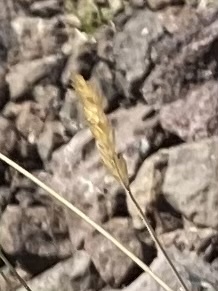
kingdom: Plantae
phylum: Tracheophyta
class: Liliopsida
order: Poales
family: Poaceae
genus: Koeleria
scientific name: Koeleria spicata
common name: Mountain trisetum
